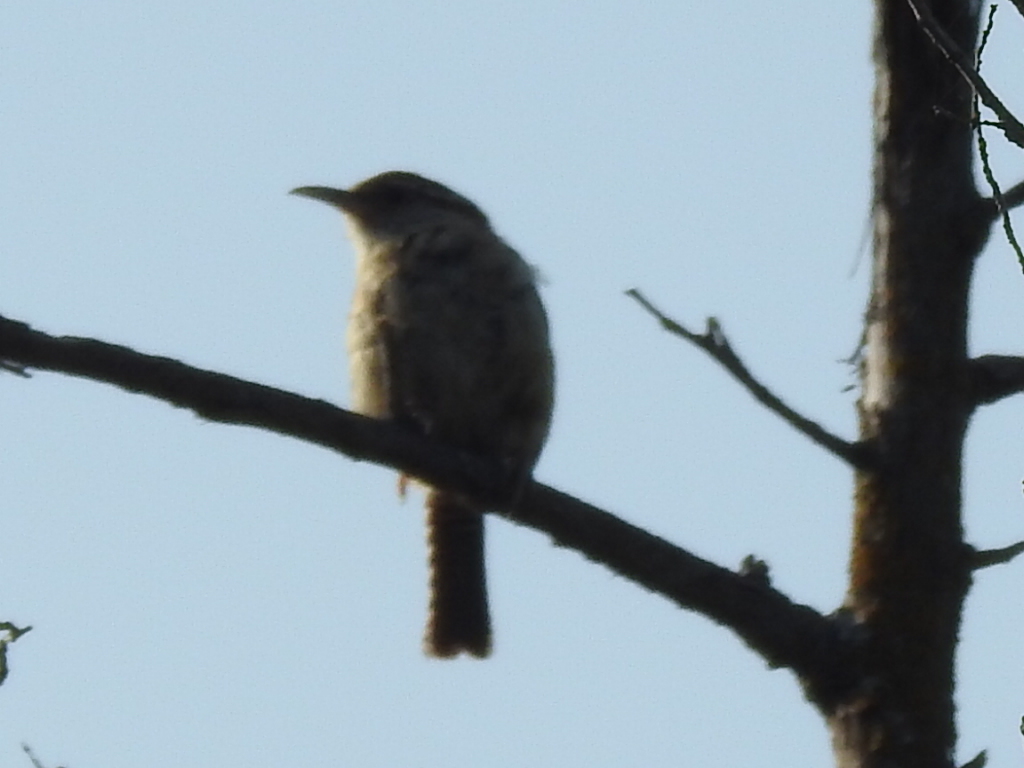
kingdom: Animalia
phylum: Chordata
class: Aves
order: Passeriformes
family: Troglodytidae
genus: Thryothorus
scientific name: Thryothorus ludovicianus
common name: Carolina wren
